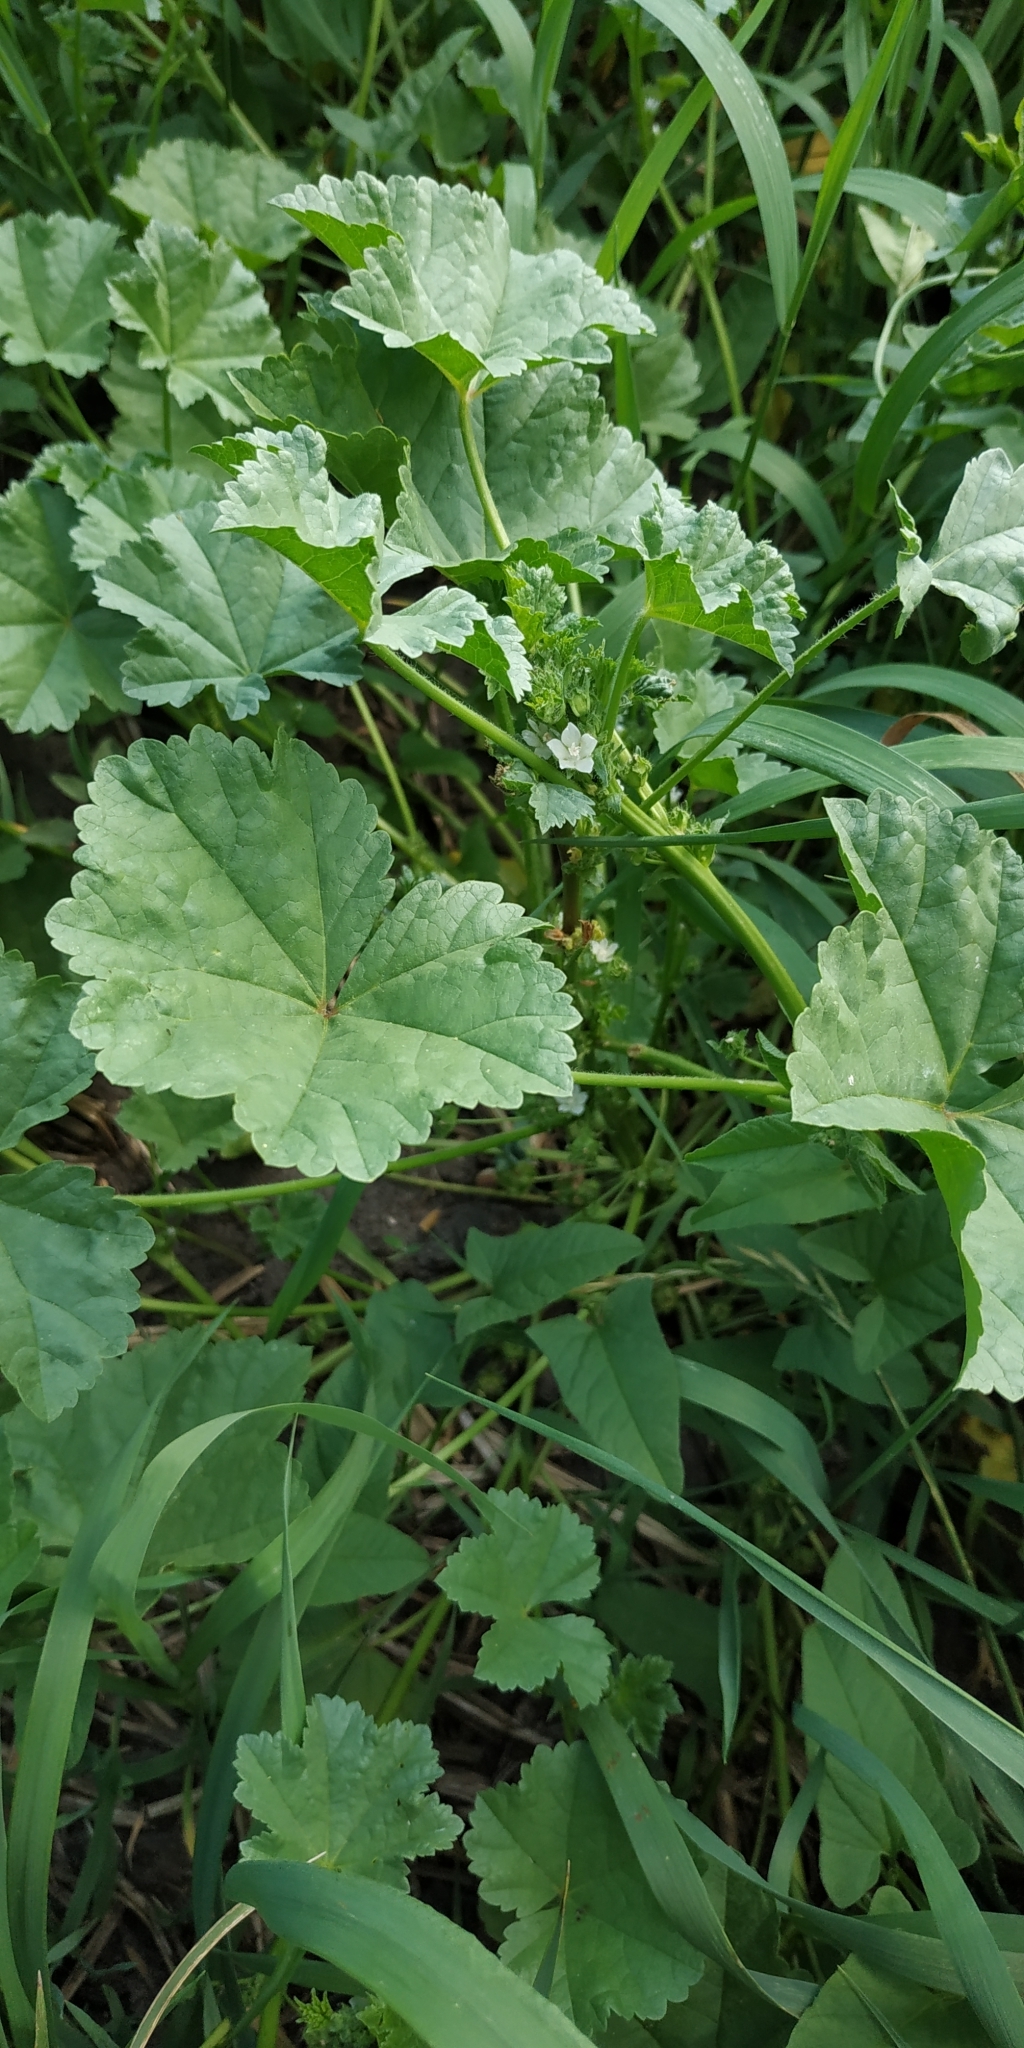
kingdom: Plantae
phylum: Tracheophyta
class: Magnoliopsida
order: Malvales
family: Malvaceae
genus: Malva
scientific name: Malva pusilla
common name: Small mallow
